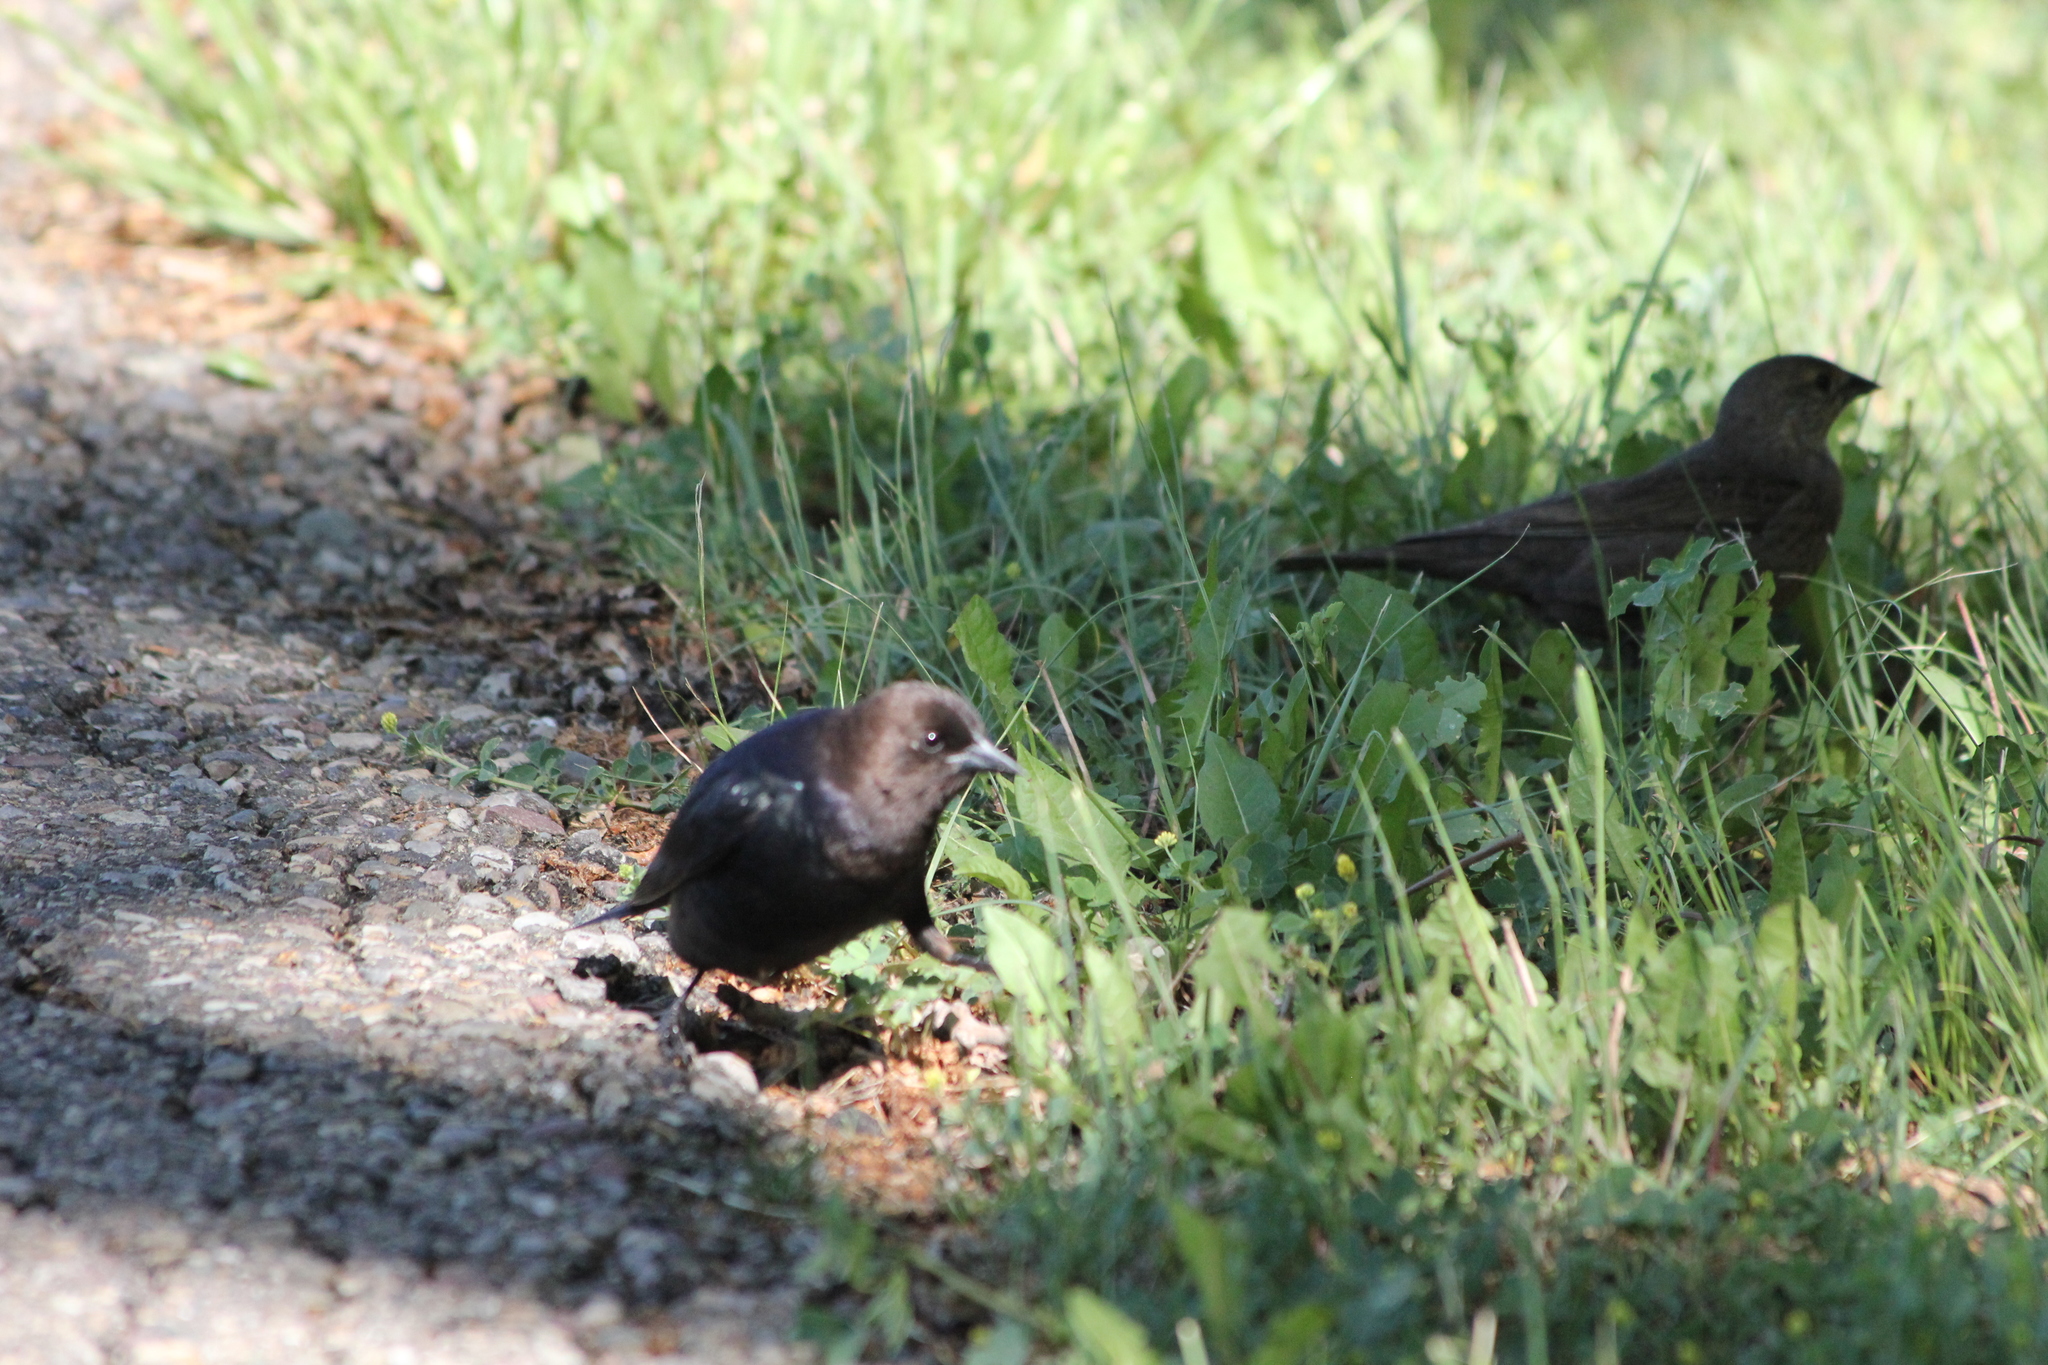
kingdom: Animalia
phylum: Chordata
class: Aves
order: Passeriformes
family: Icteridae
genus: Molothrus
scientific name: Molothrus ater
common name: Brown-headed cowbird
